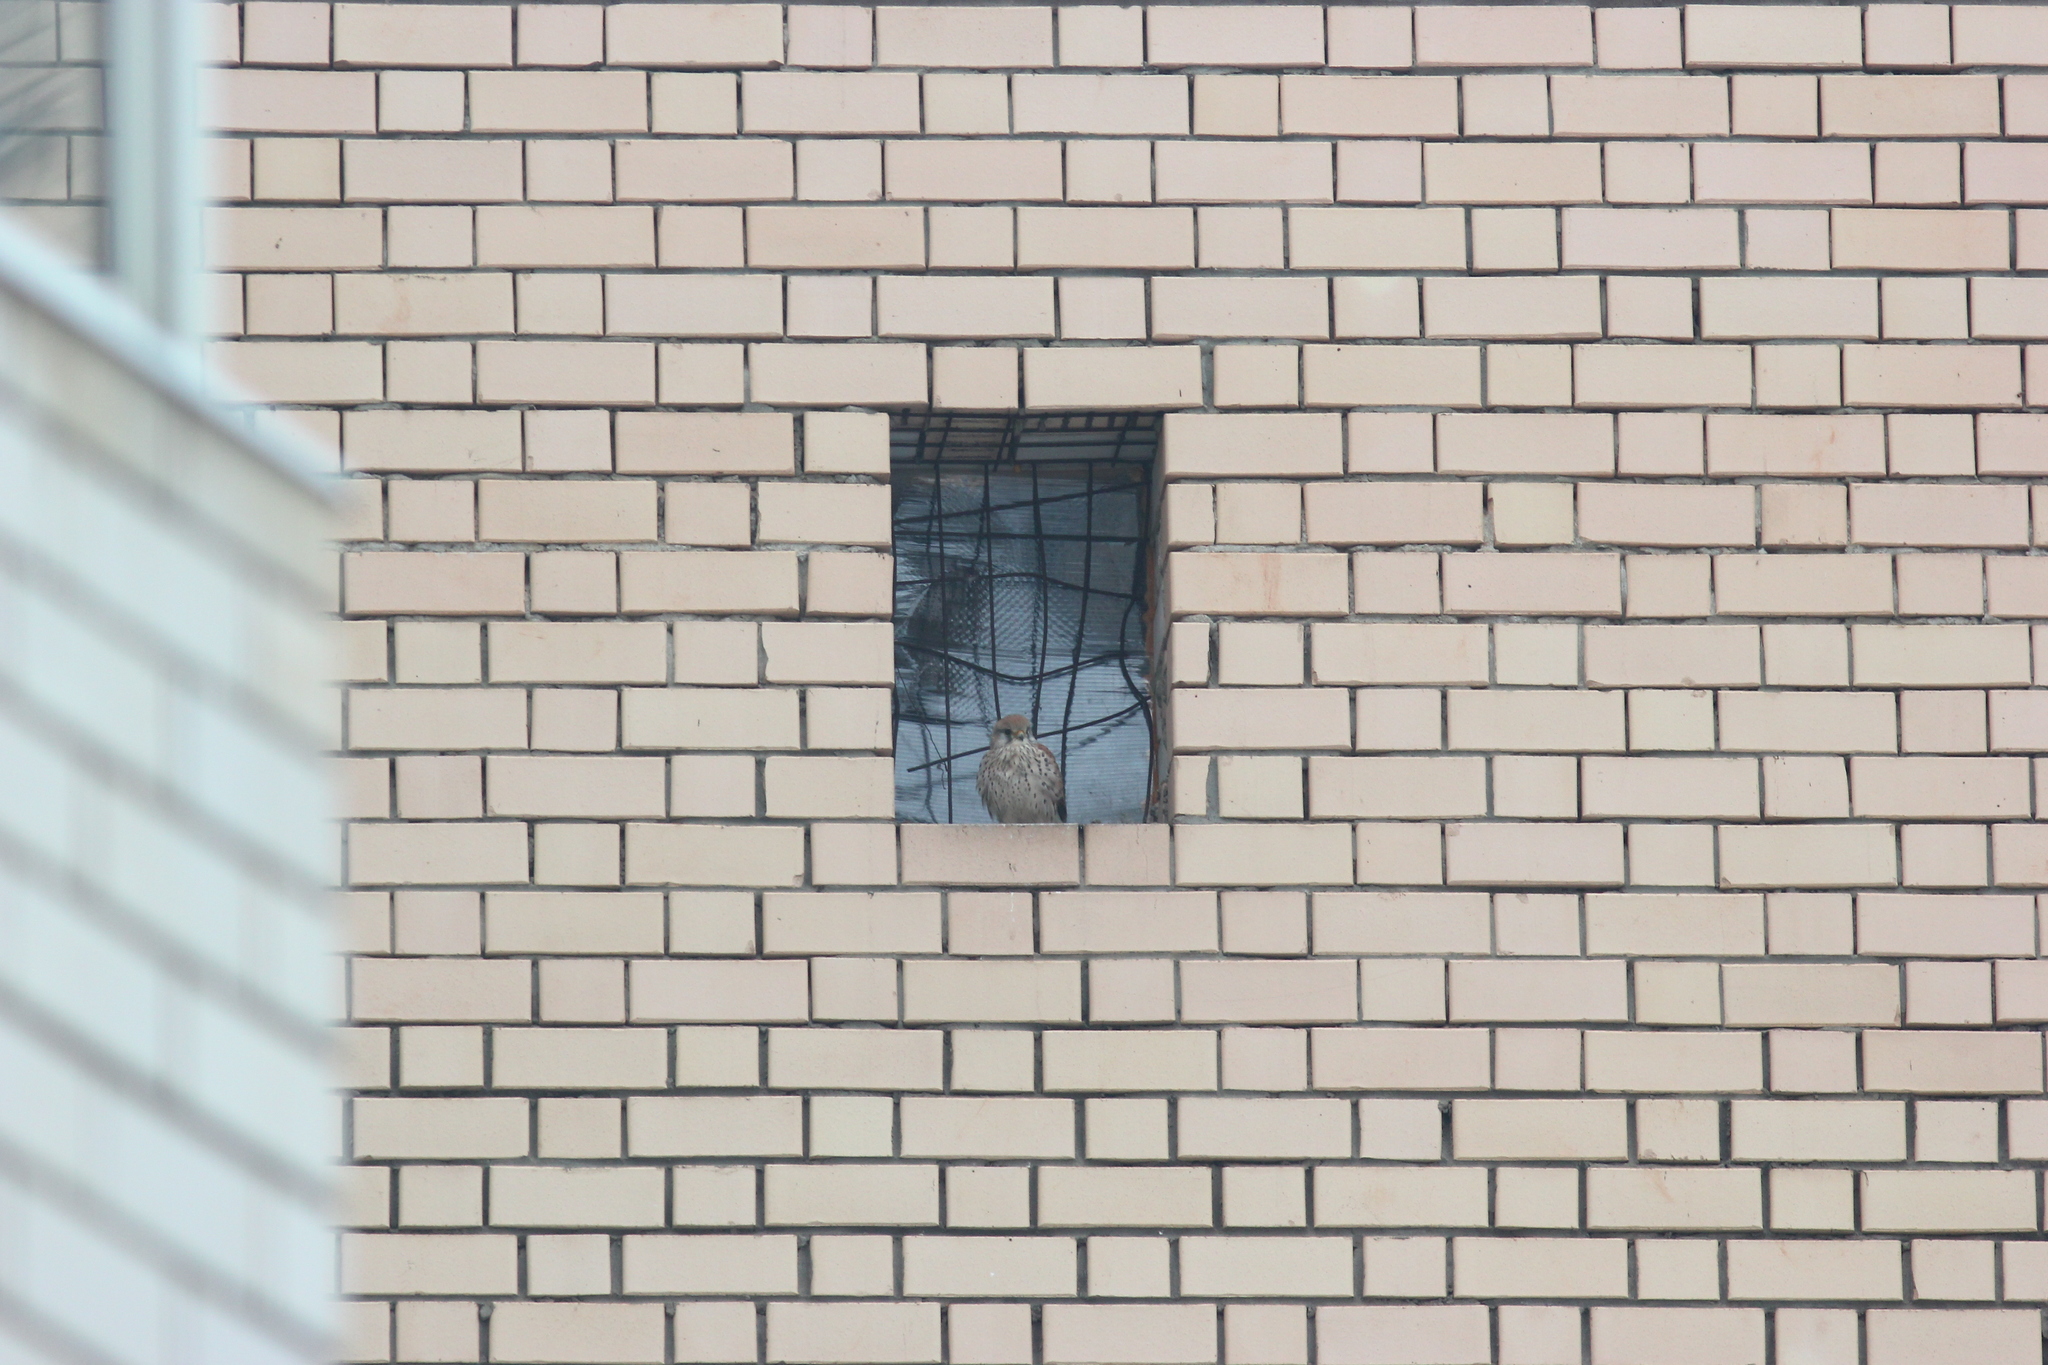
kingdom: Animalia
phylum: Chordata
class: Aves
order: Falconiformes
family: Falconidae
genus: Falco
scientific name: Falco tinnunculus
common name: Common kestrel
